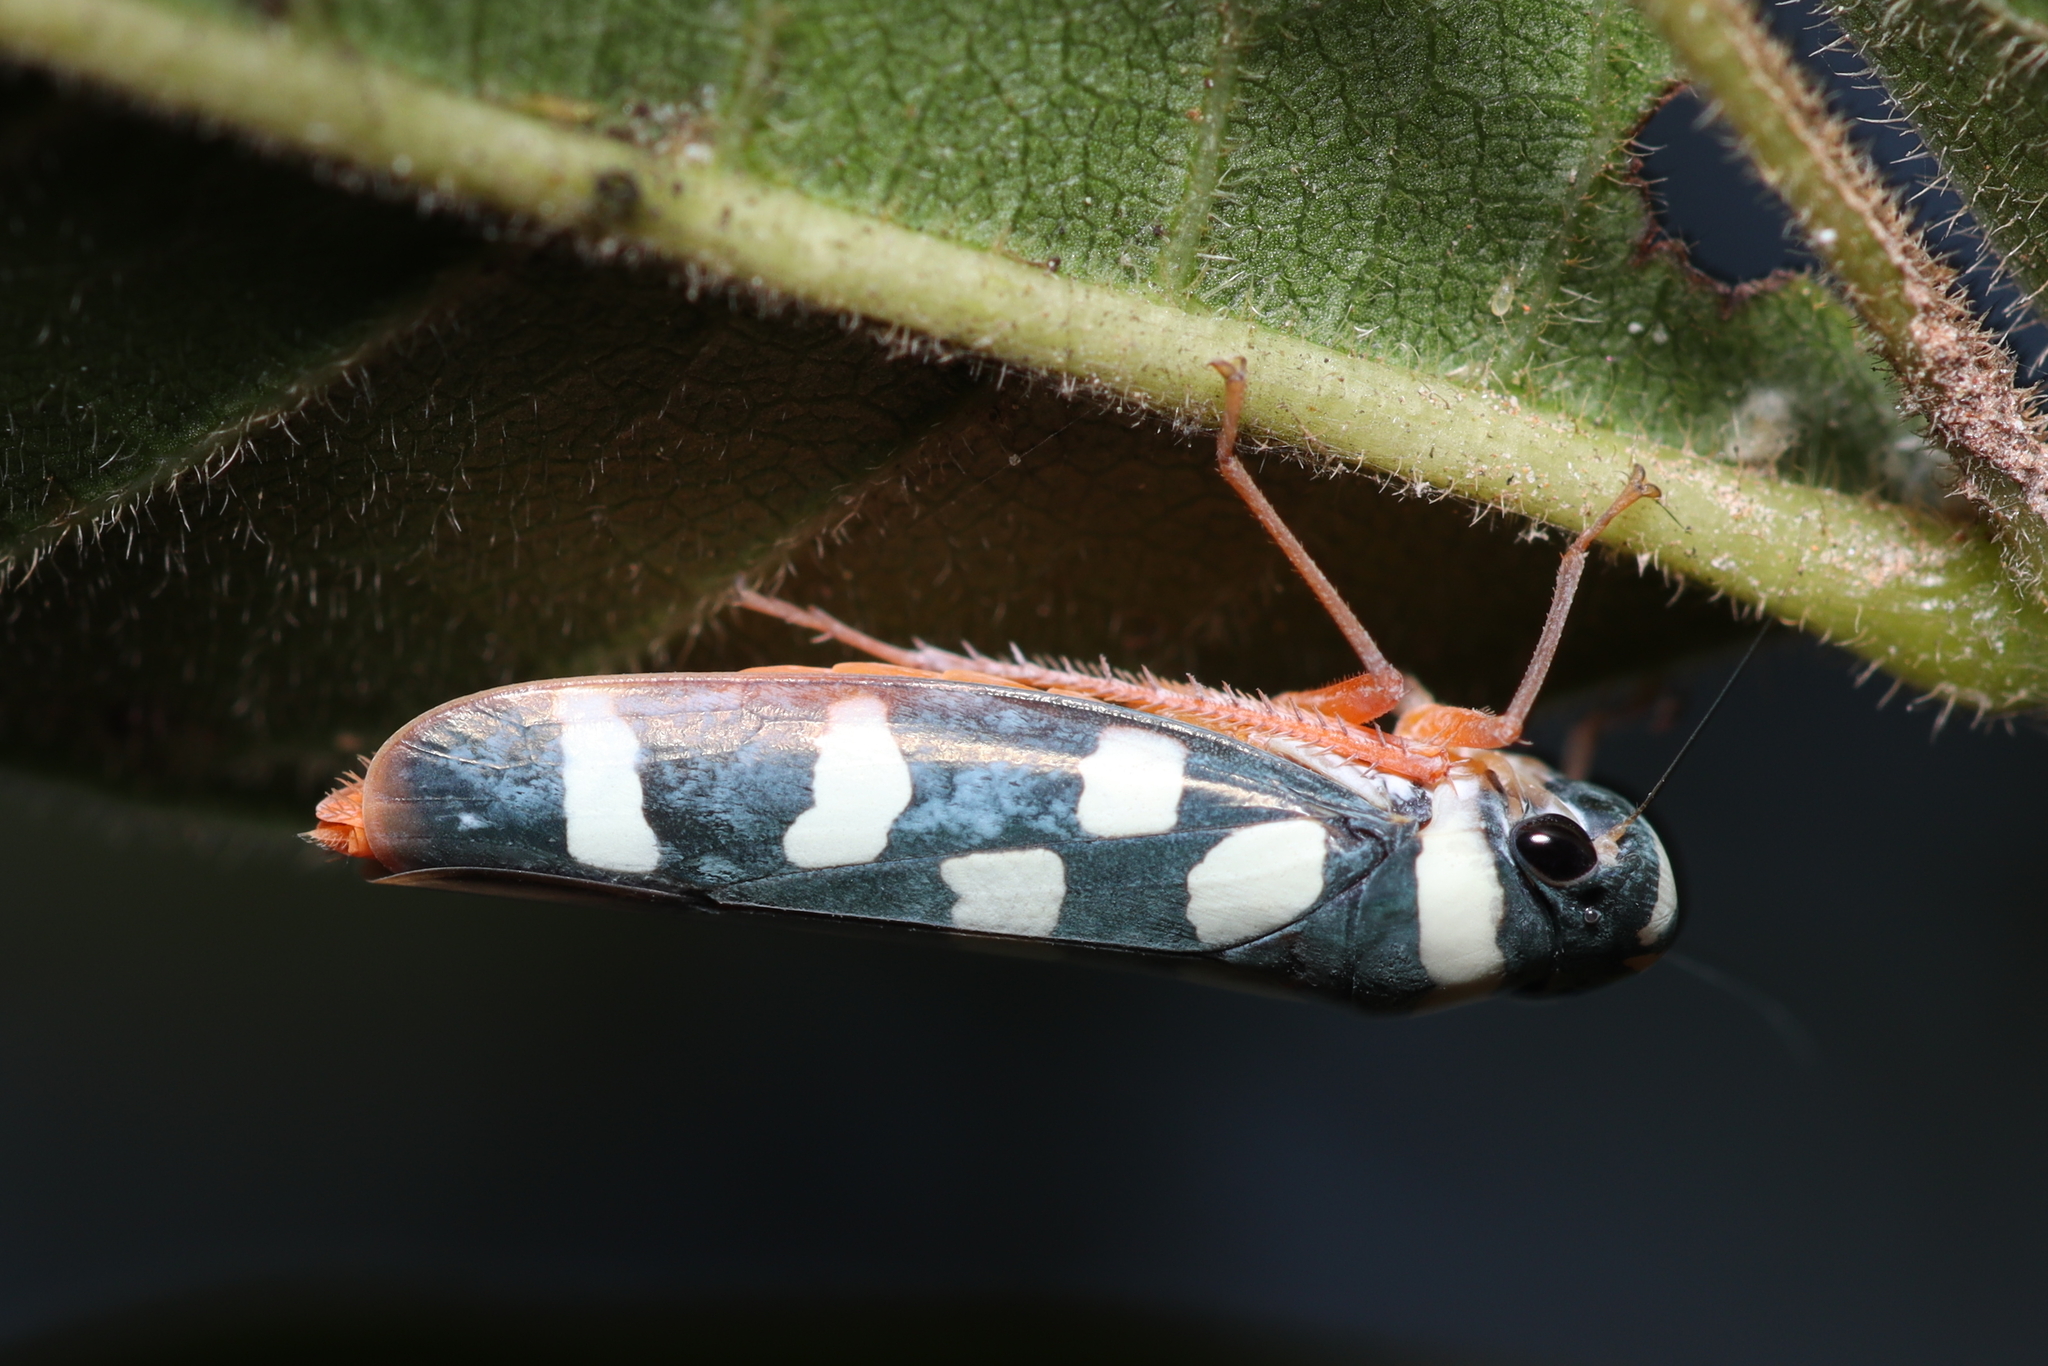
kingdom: Animalia
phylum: Arthropoda
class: Insecta
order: Hemiptera
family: Cicadellidae
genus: Cardioscarta
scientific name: Cardioscarta albigutta
